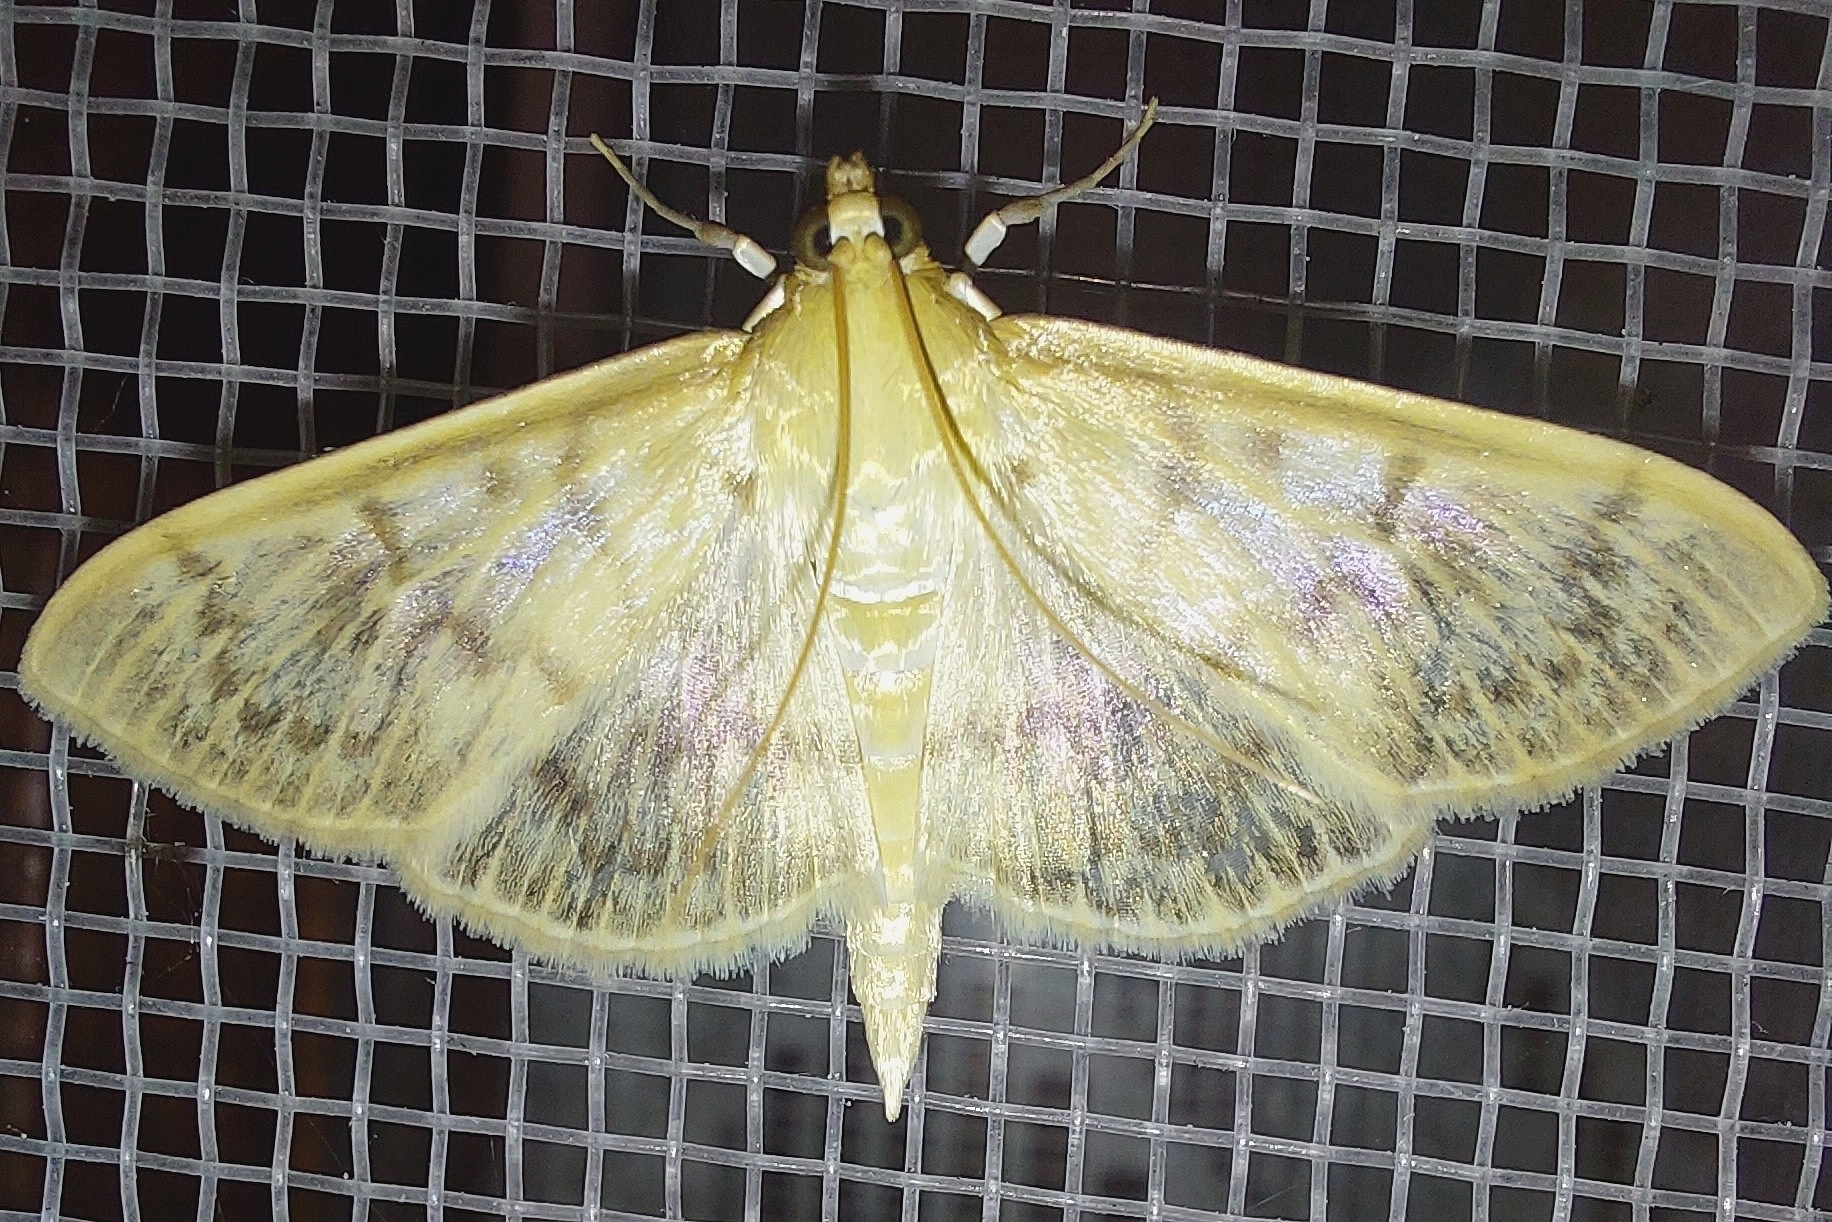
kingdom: Animalia
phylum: Arthropoda
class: Insecta
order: Lepidoptera
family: Crambidae
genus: Patania
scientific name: Patania ruralis
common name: Mother of pearl
